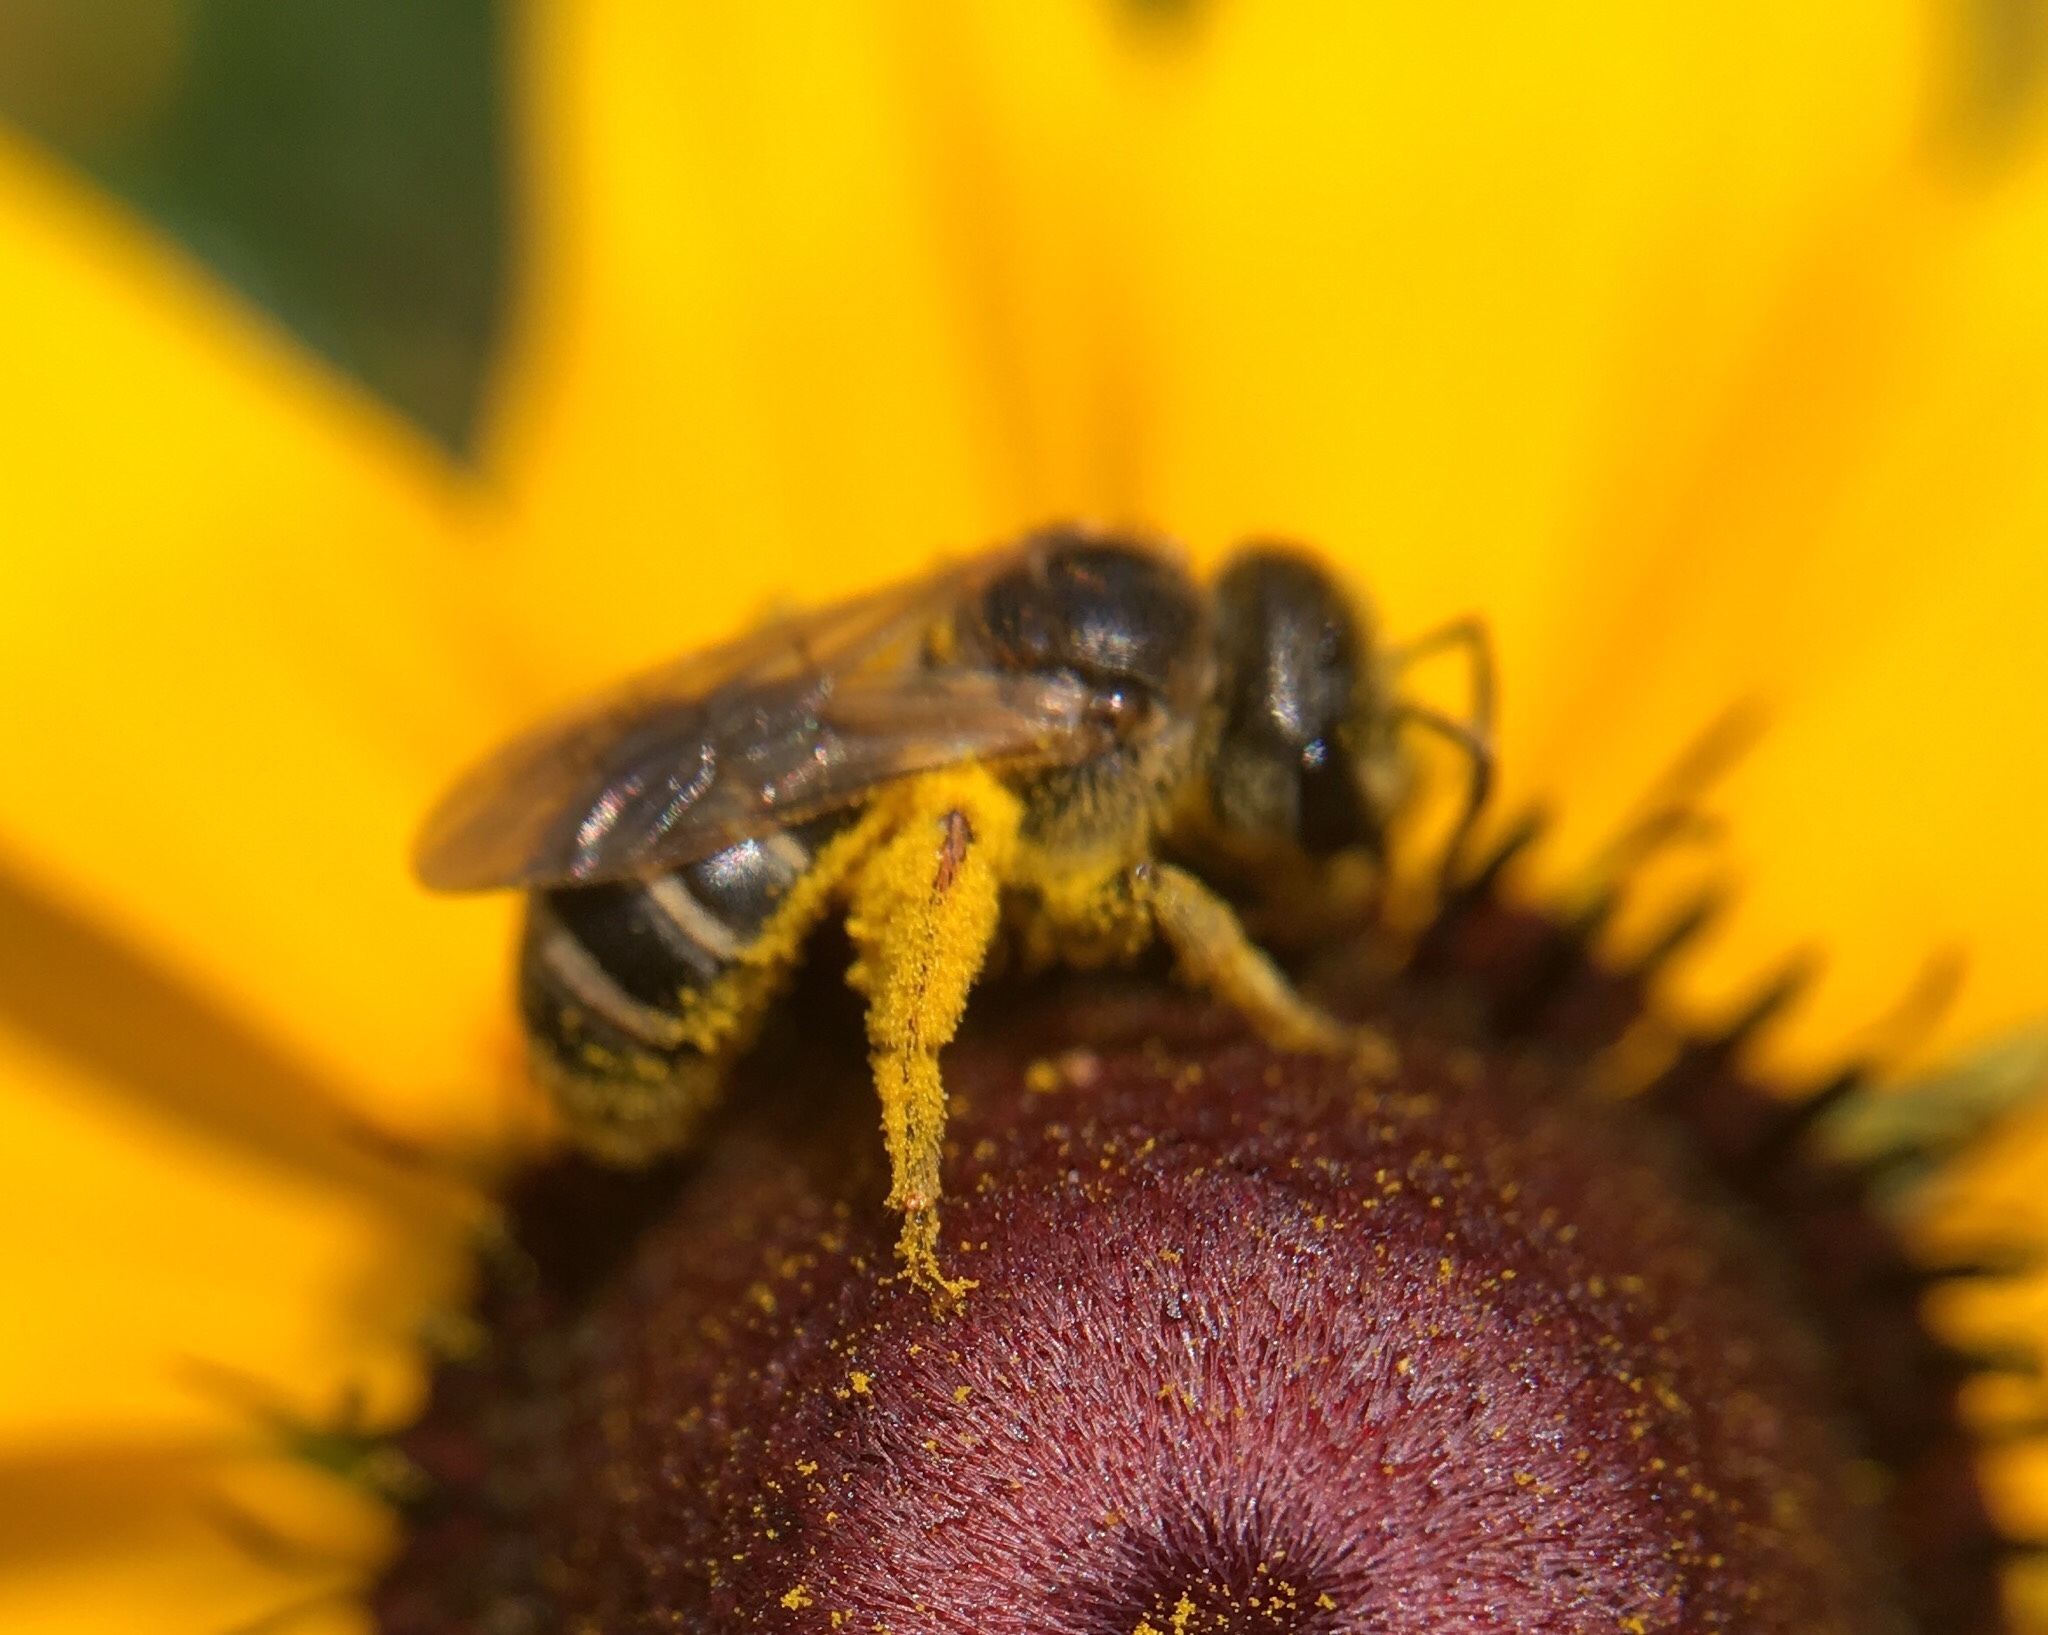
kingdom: Animalia
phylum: Arthropoda
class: Insecta
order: Hymenoptera
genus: Odontalictus
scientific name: Odontalictus
